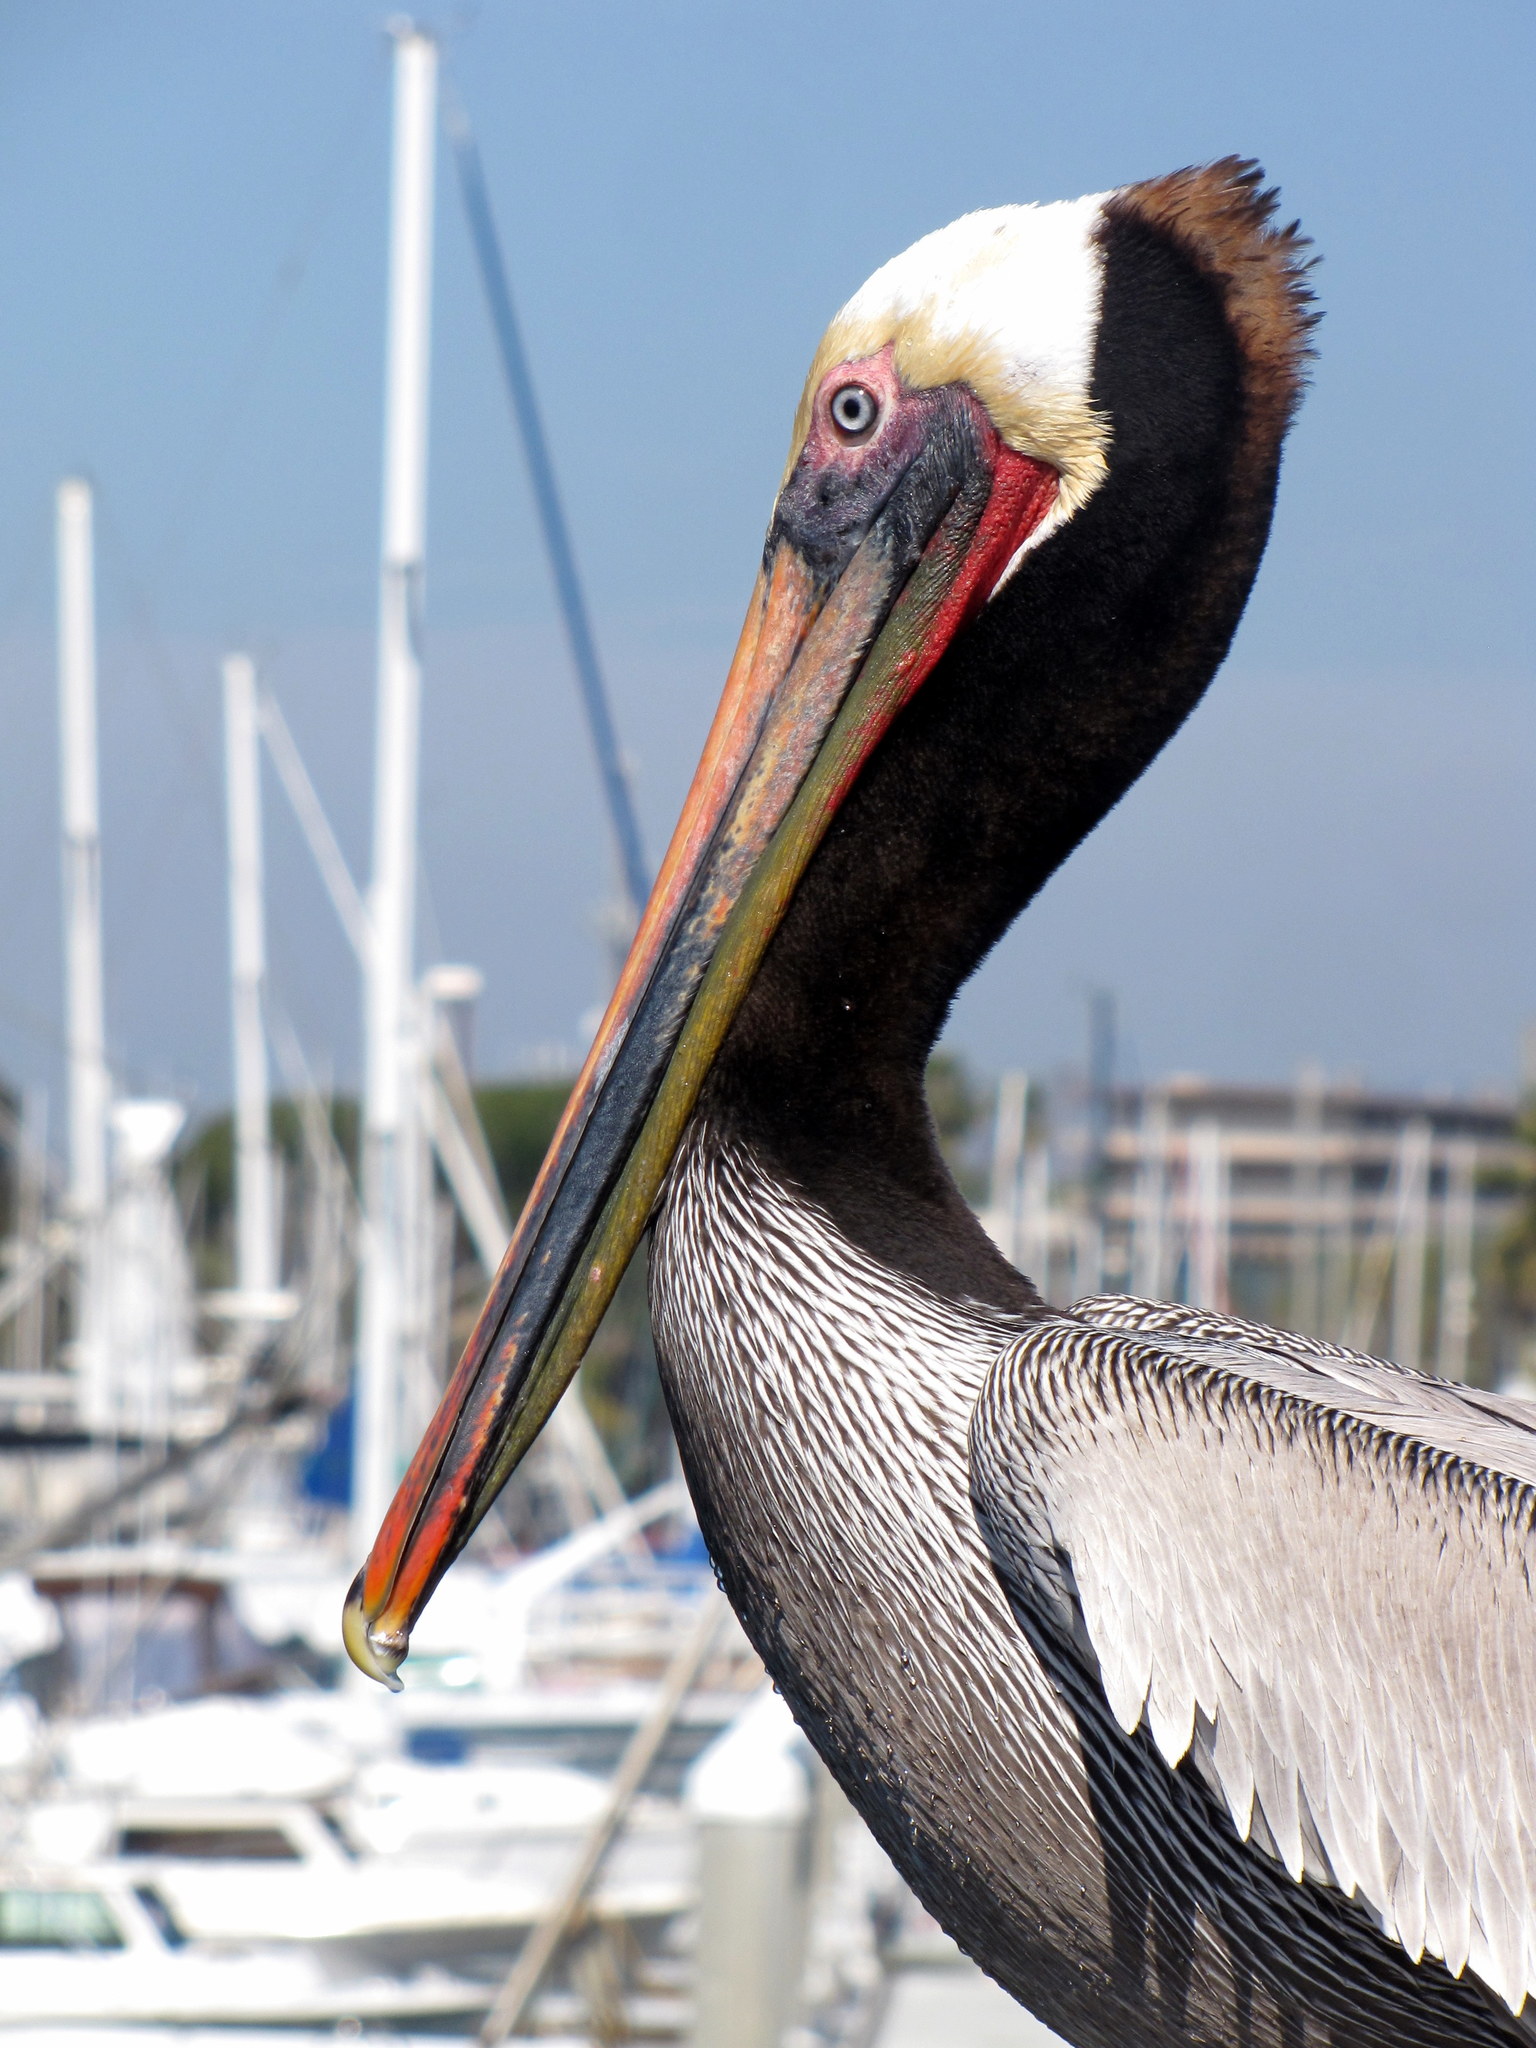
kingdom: Animalia
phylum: Chordata
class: Aves
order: Pelecaniformes
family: Pelecanidae
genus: Pelecanus
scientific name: Pelecanus occidentalis
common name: Brown pelican
